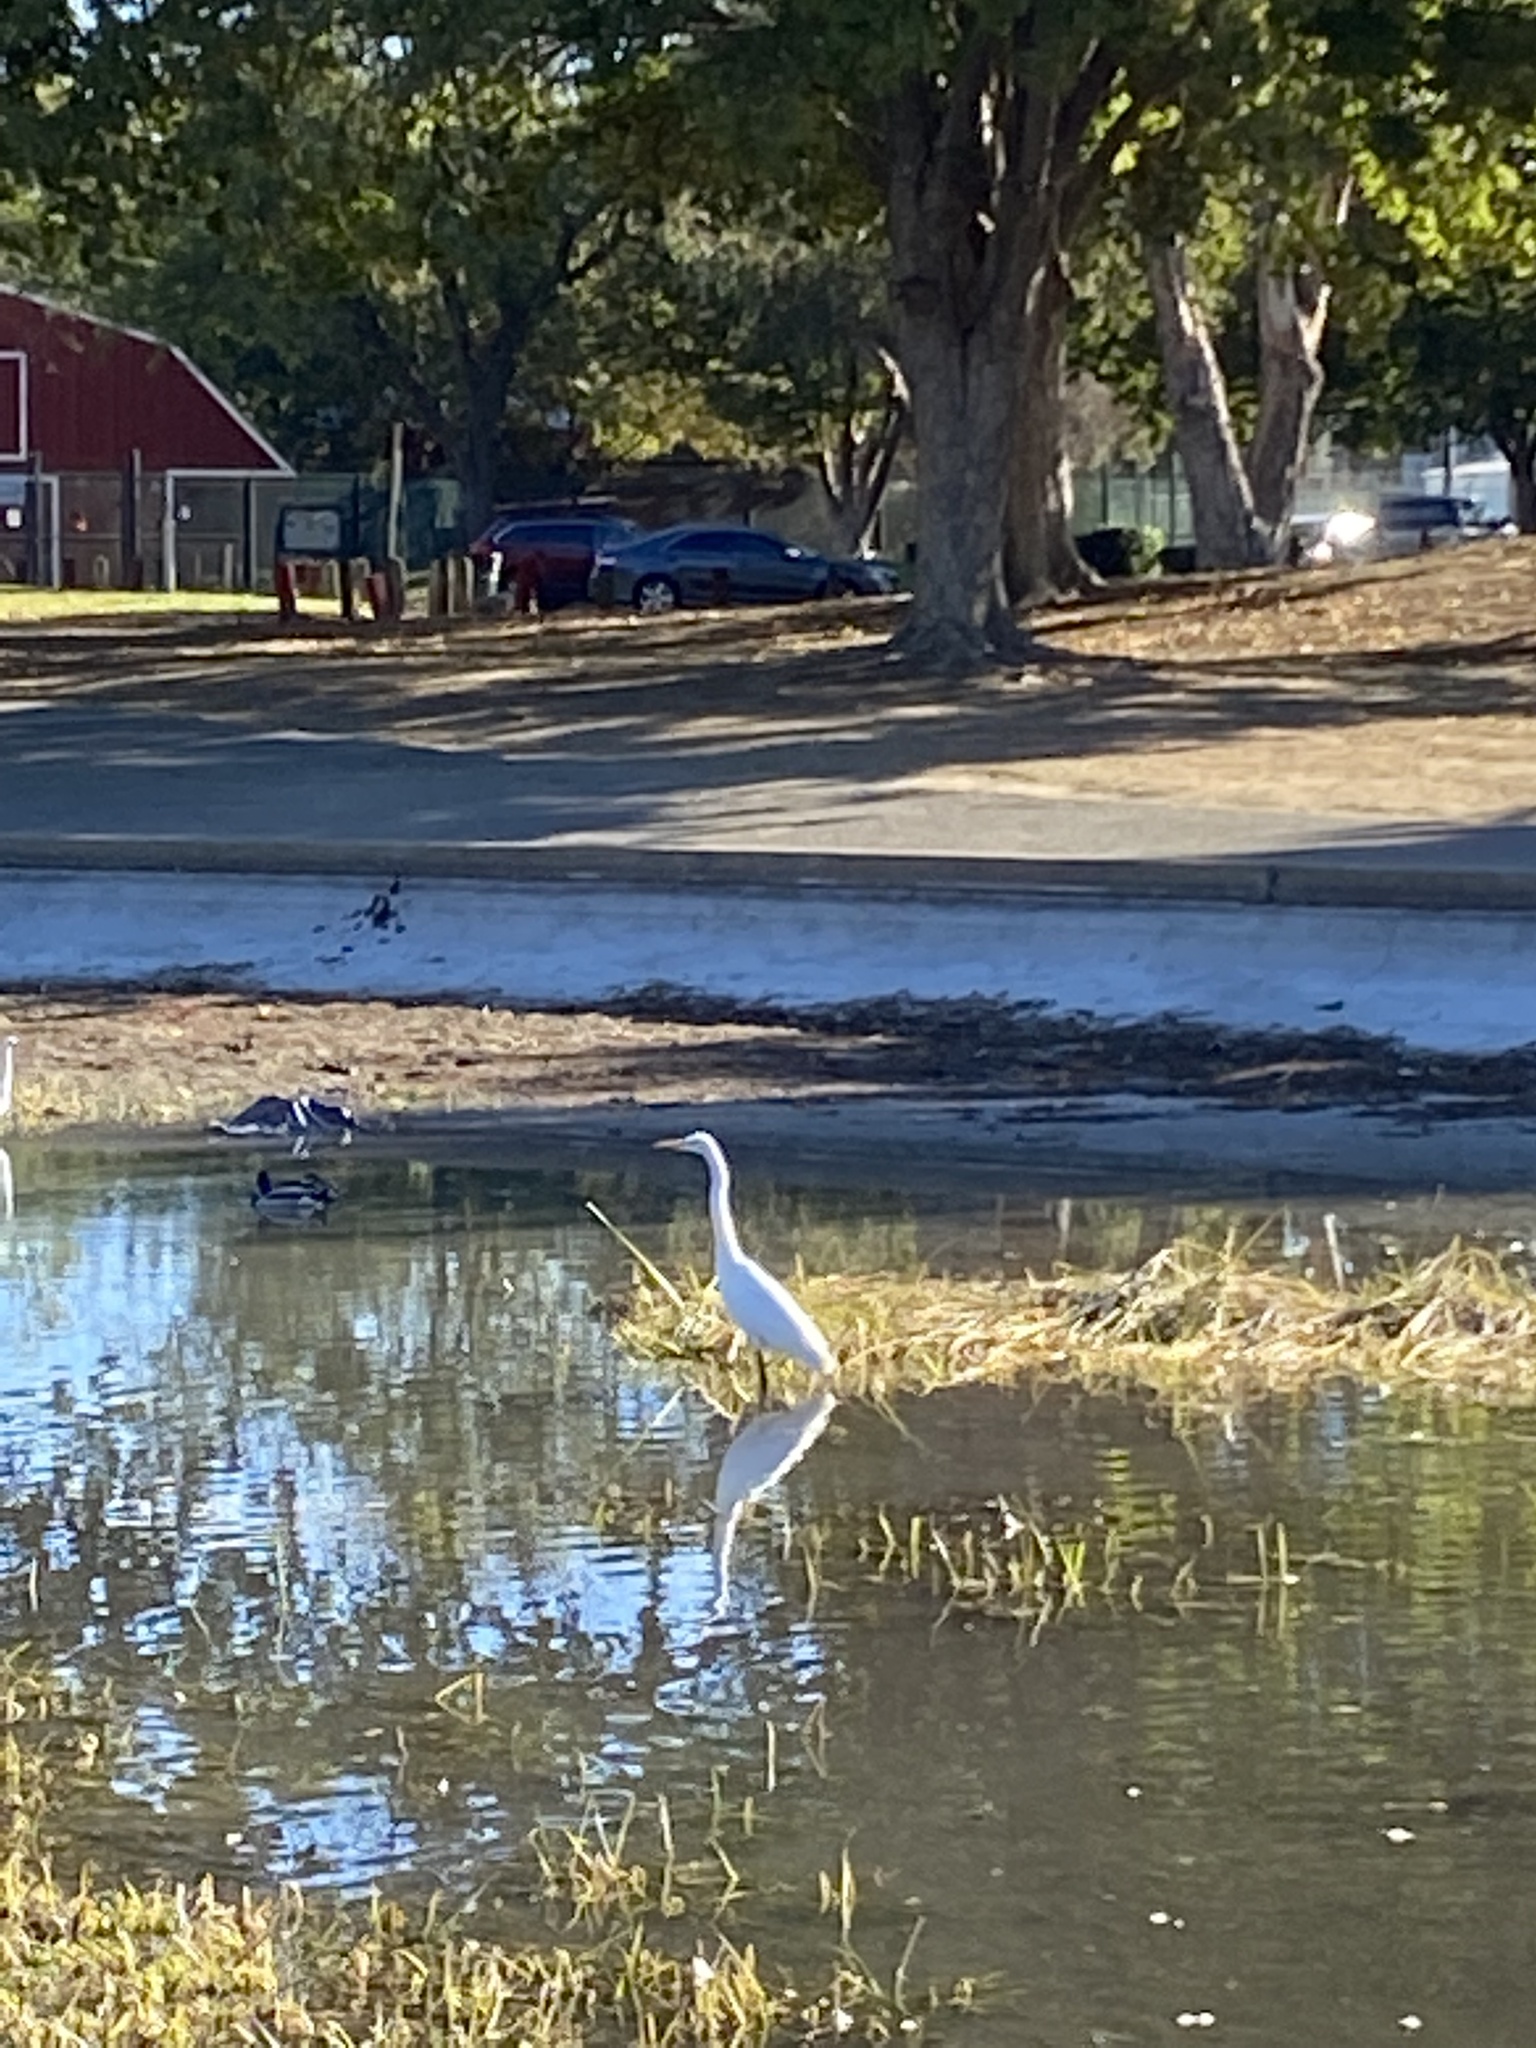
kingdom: Animalia
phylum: Chordata
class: Aves
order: Pelecaniformes
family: Ardeidae
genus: Ardea
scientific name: Ardea alba
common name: Great egret
